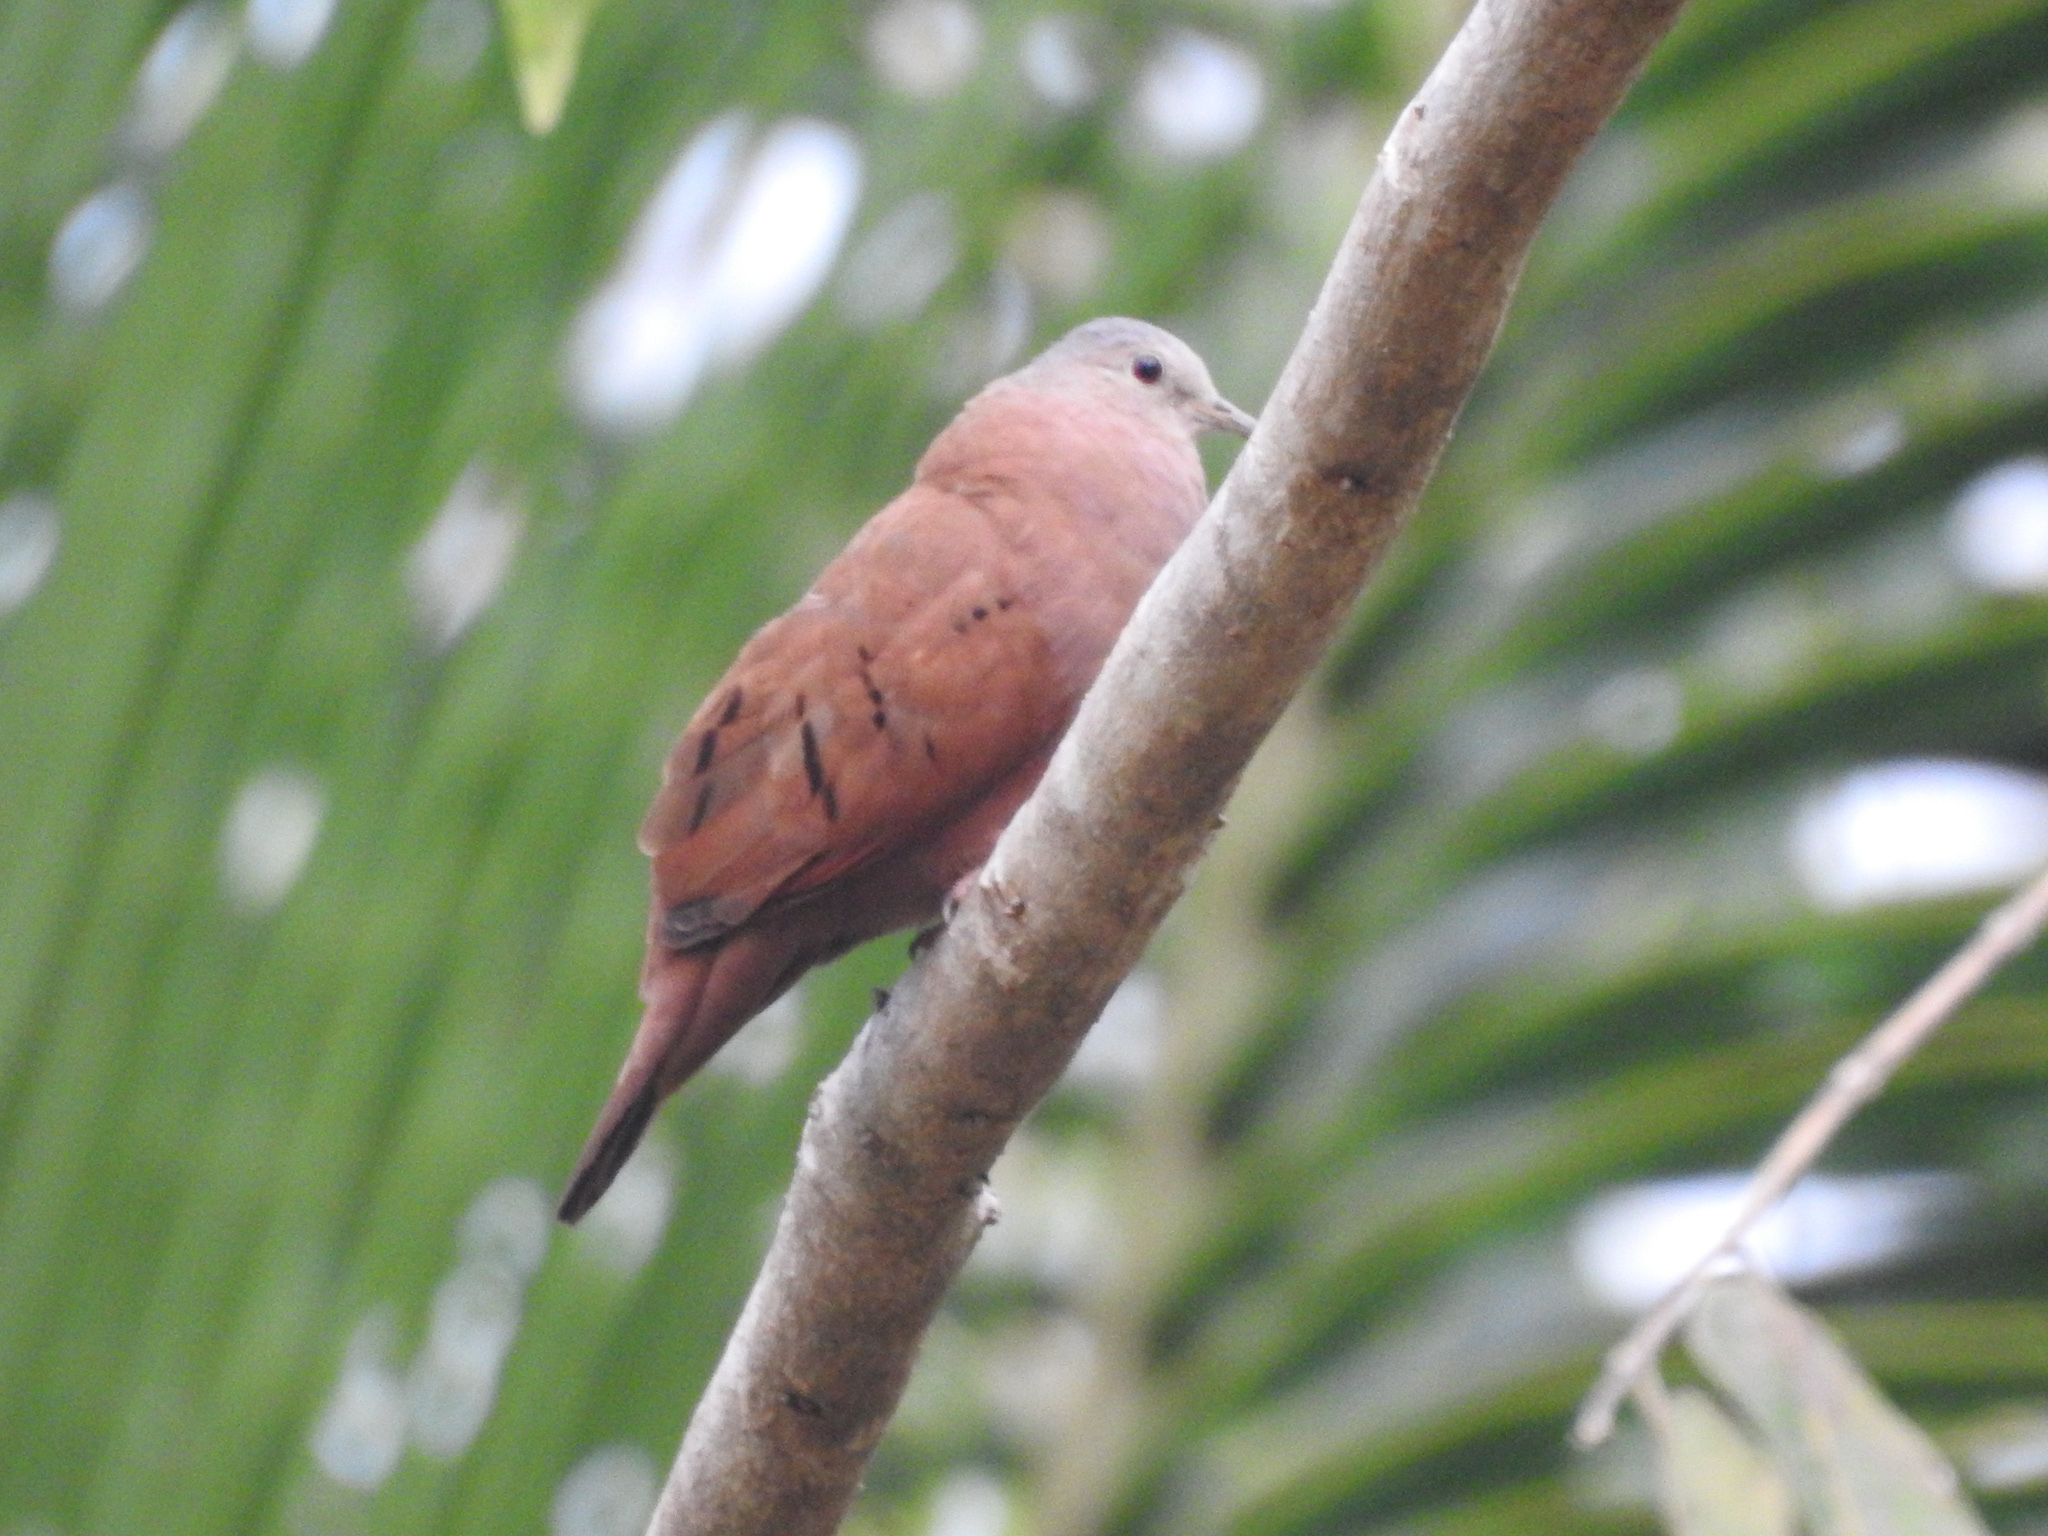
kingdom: Animalia
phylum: Chordata
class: Aves
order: Columbiformes
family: Columbidae
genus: Columbina
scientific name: Columbina talpacoti
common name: Ruddy ground dove
